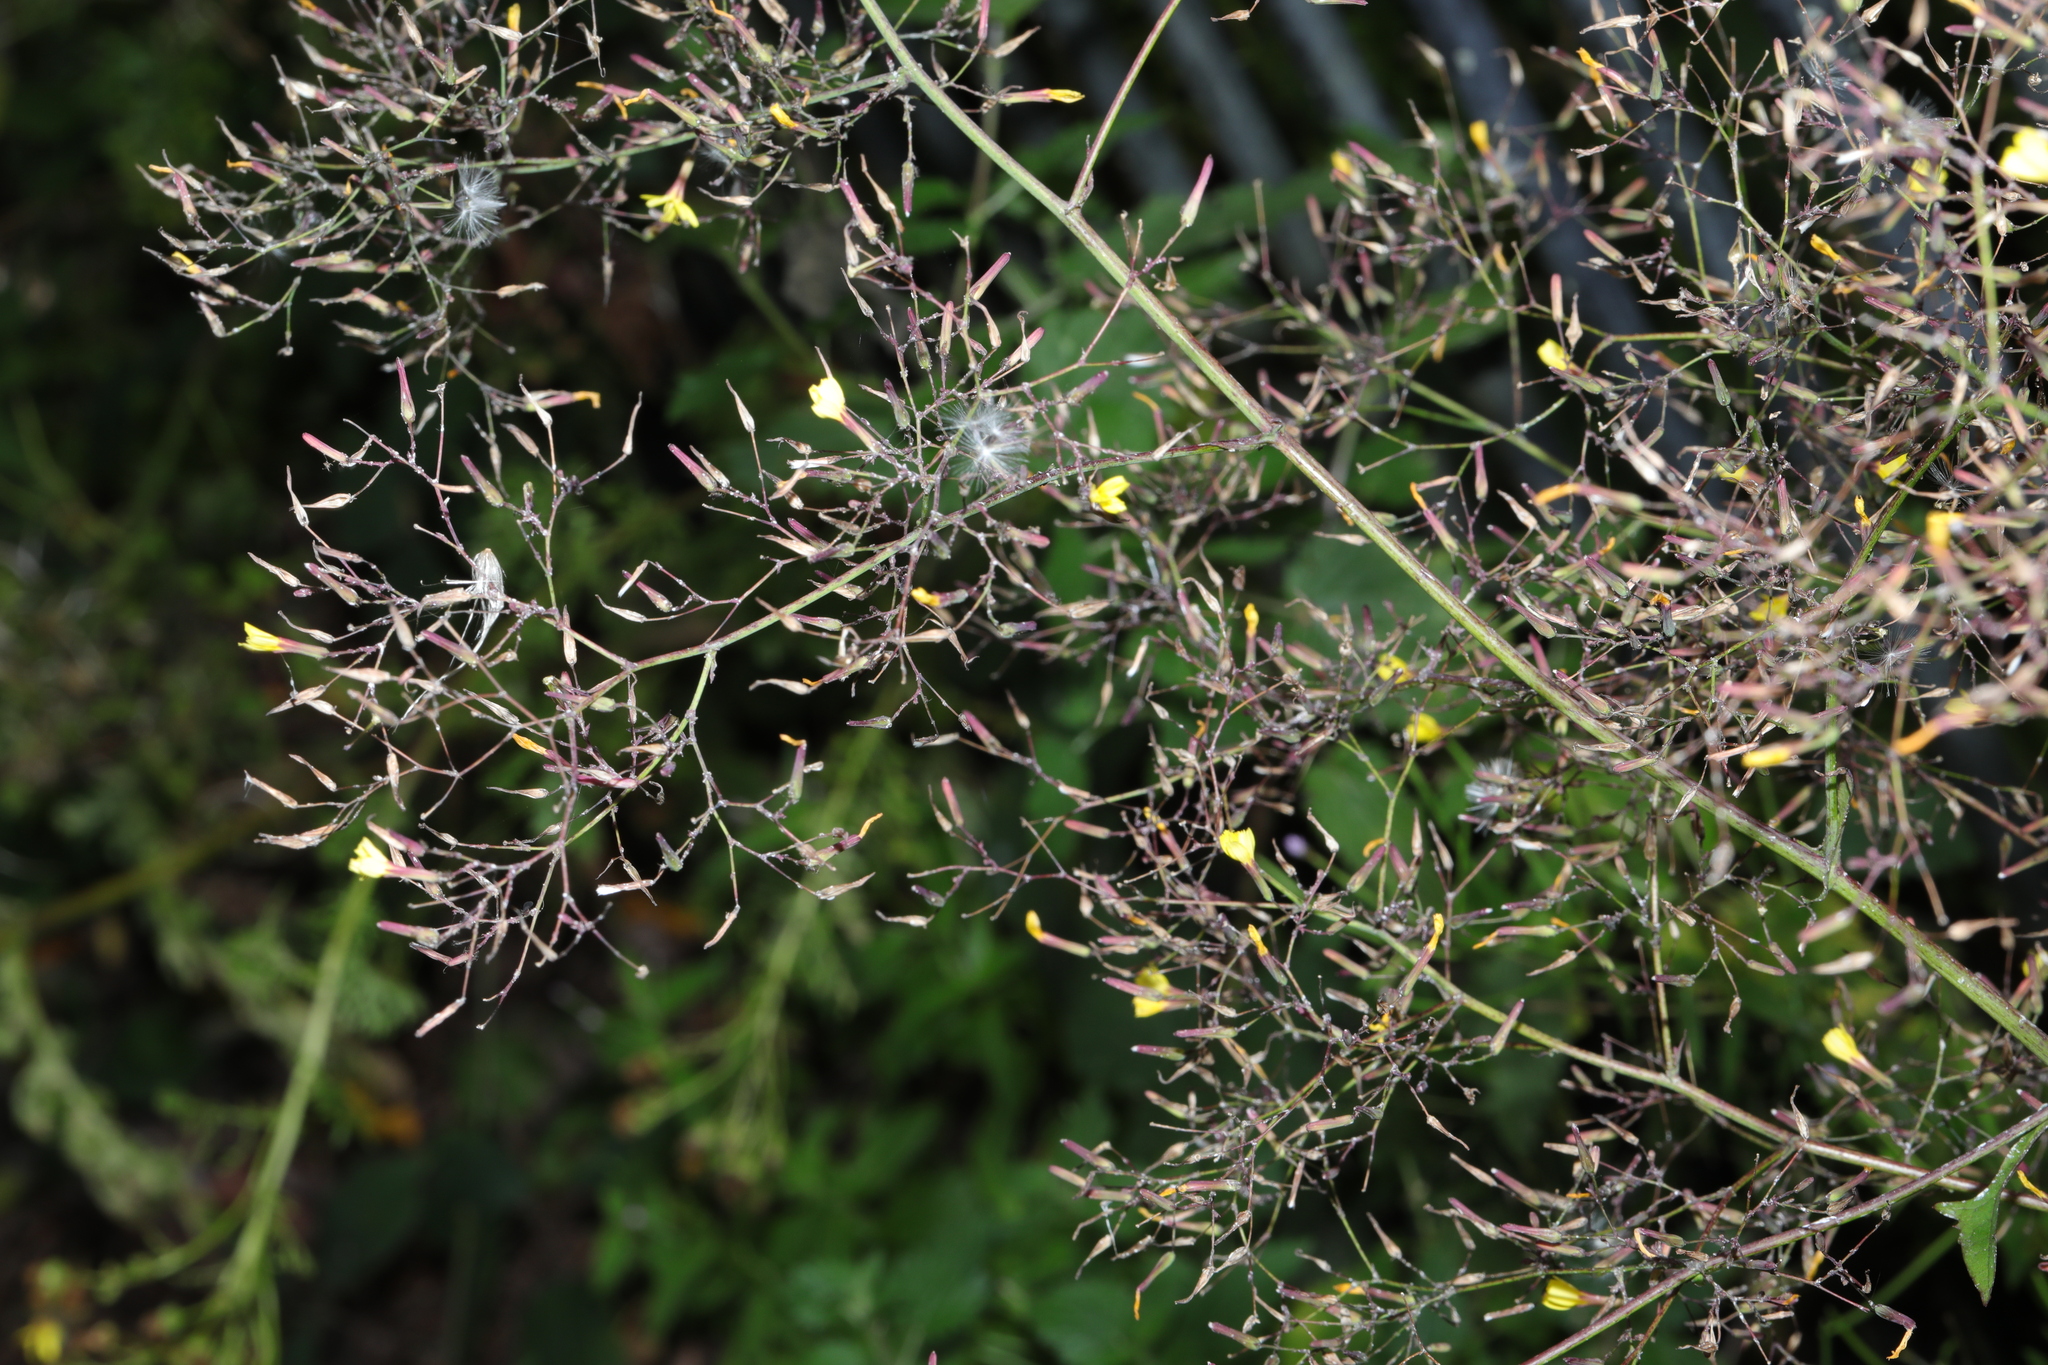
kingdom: Plantae
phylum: Tracheophyta
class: Magnoliopsida
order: Asterales
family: Asteraceae
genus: Mycelis
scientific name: Mycelis muralis
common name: Wall lettuce
